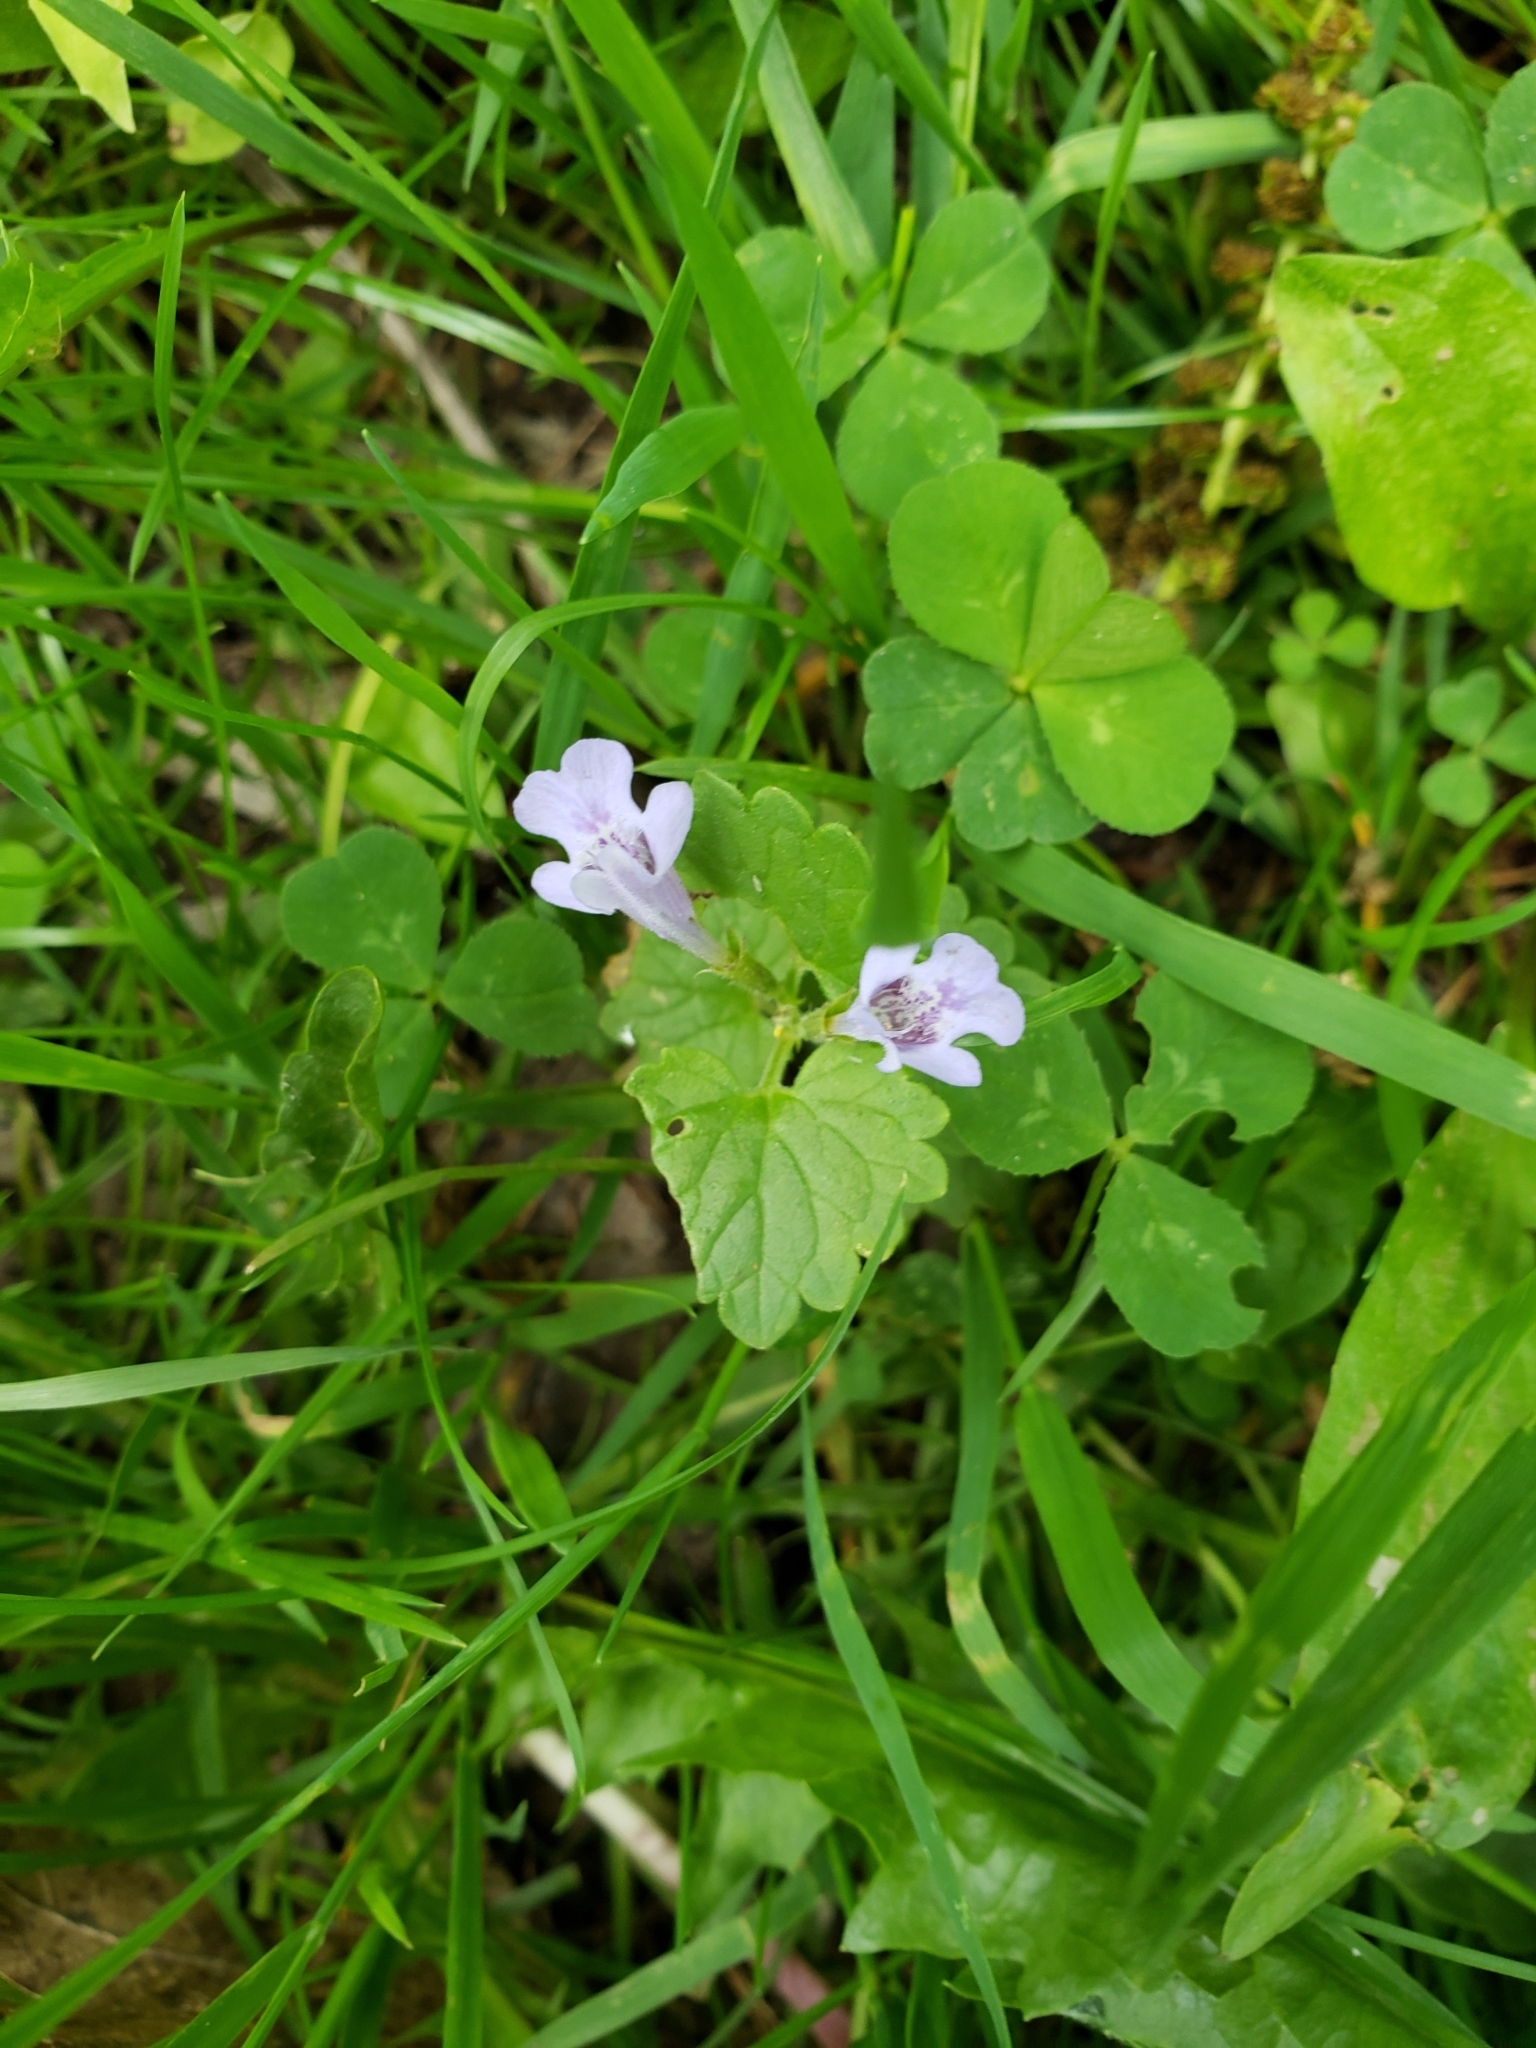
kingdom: Plantae
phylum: Tracheophyta
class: Magnoliopsida
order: Lamiales
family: Lamiaceae
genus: Glechoma
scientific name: Glechoma hederacea
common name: Ground ivy
